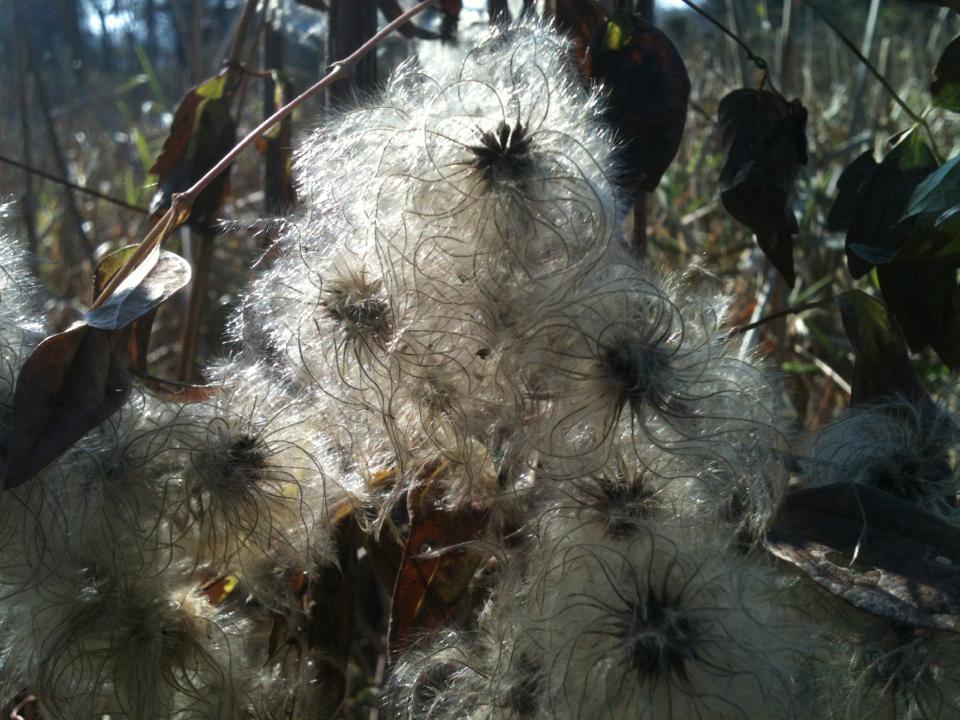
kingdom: Plantae
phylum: Tracheophyta
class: Magnoliopsida
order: Ranunculales
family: Ranunculaceae
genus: Clematis
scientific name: Clematis virginiana
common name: Virgin's-bower
